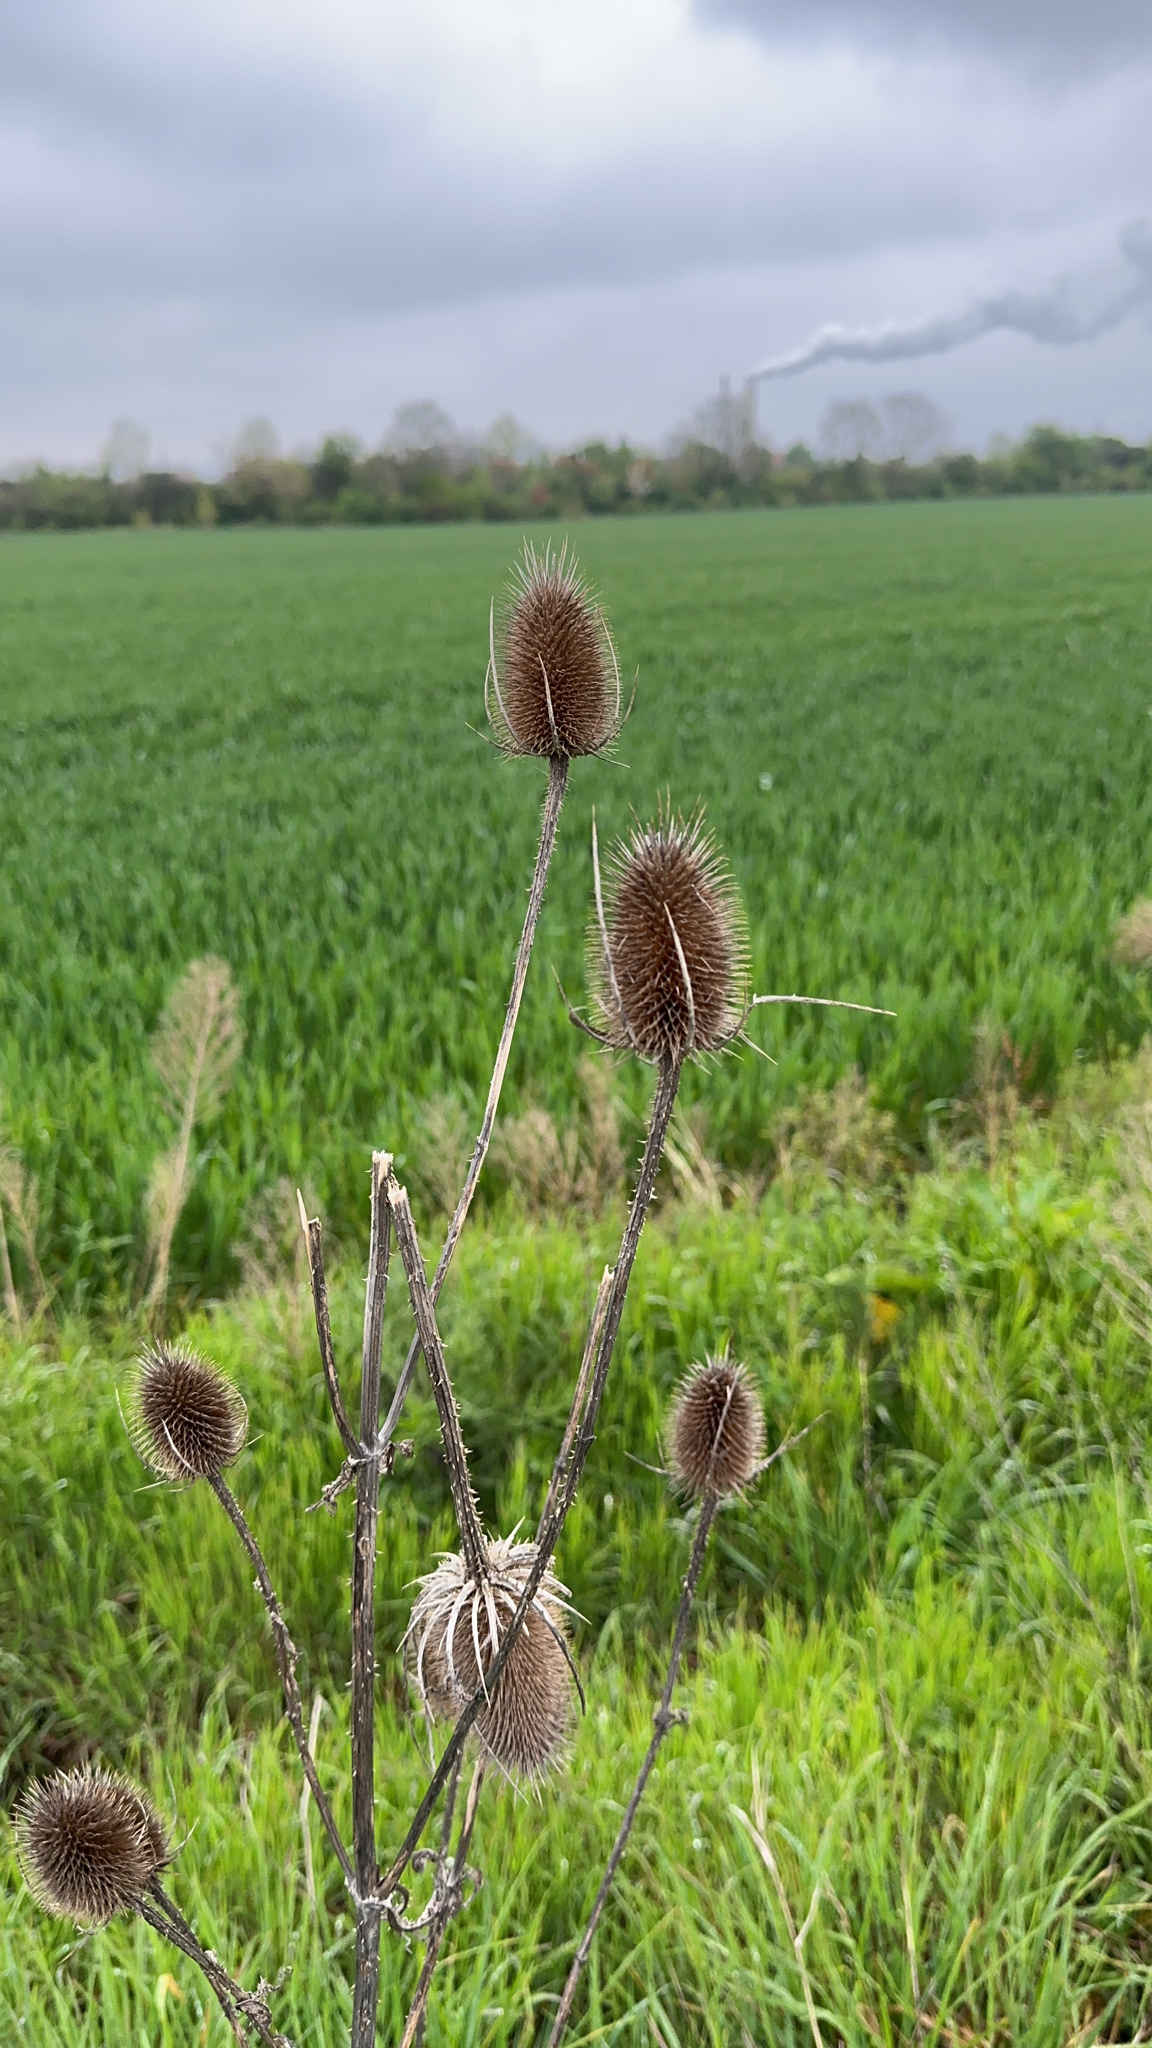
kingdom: Plantae
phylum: Tracheophyta
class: Magnoliopsida
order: Dipsacales
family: Caprifoliaceae
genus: Dipsacus
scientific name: Dipsacus fullonum
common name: Teasel
